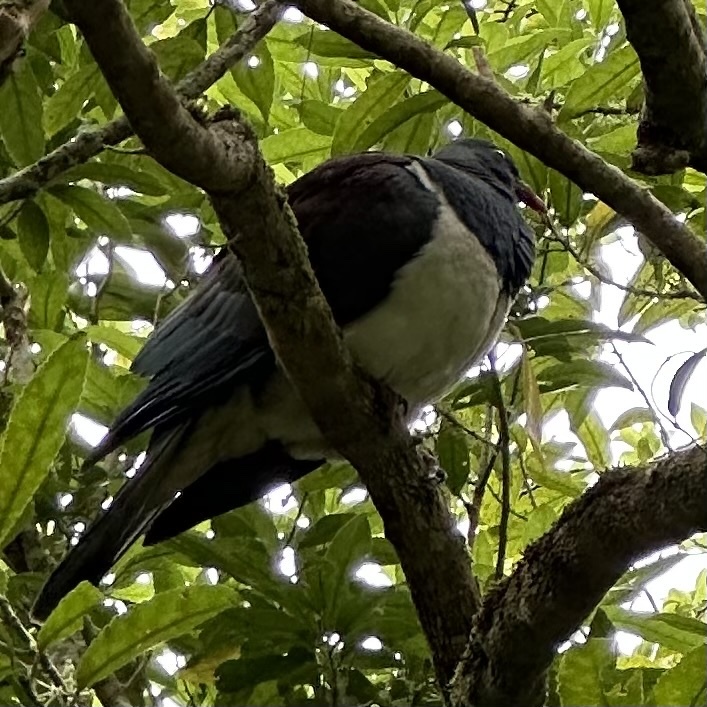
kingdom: Animalia
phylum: Chordata
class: Aves
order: Columbiformes
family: Columbidae
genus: Hemiphaga
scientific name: Hemiphaga novaeseelandiae
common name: New zealand pigeon
